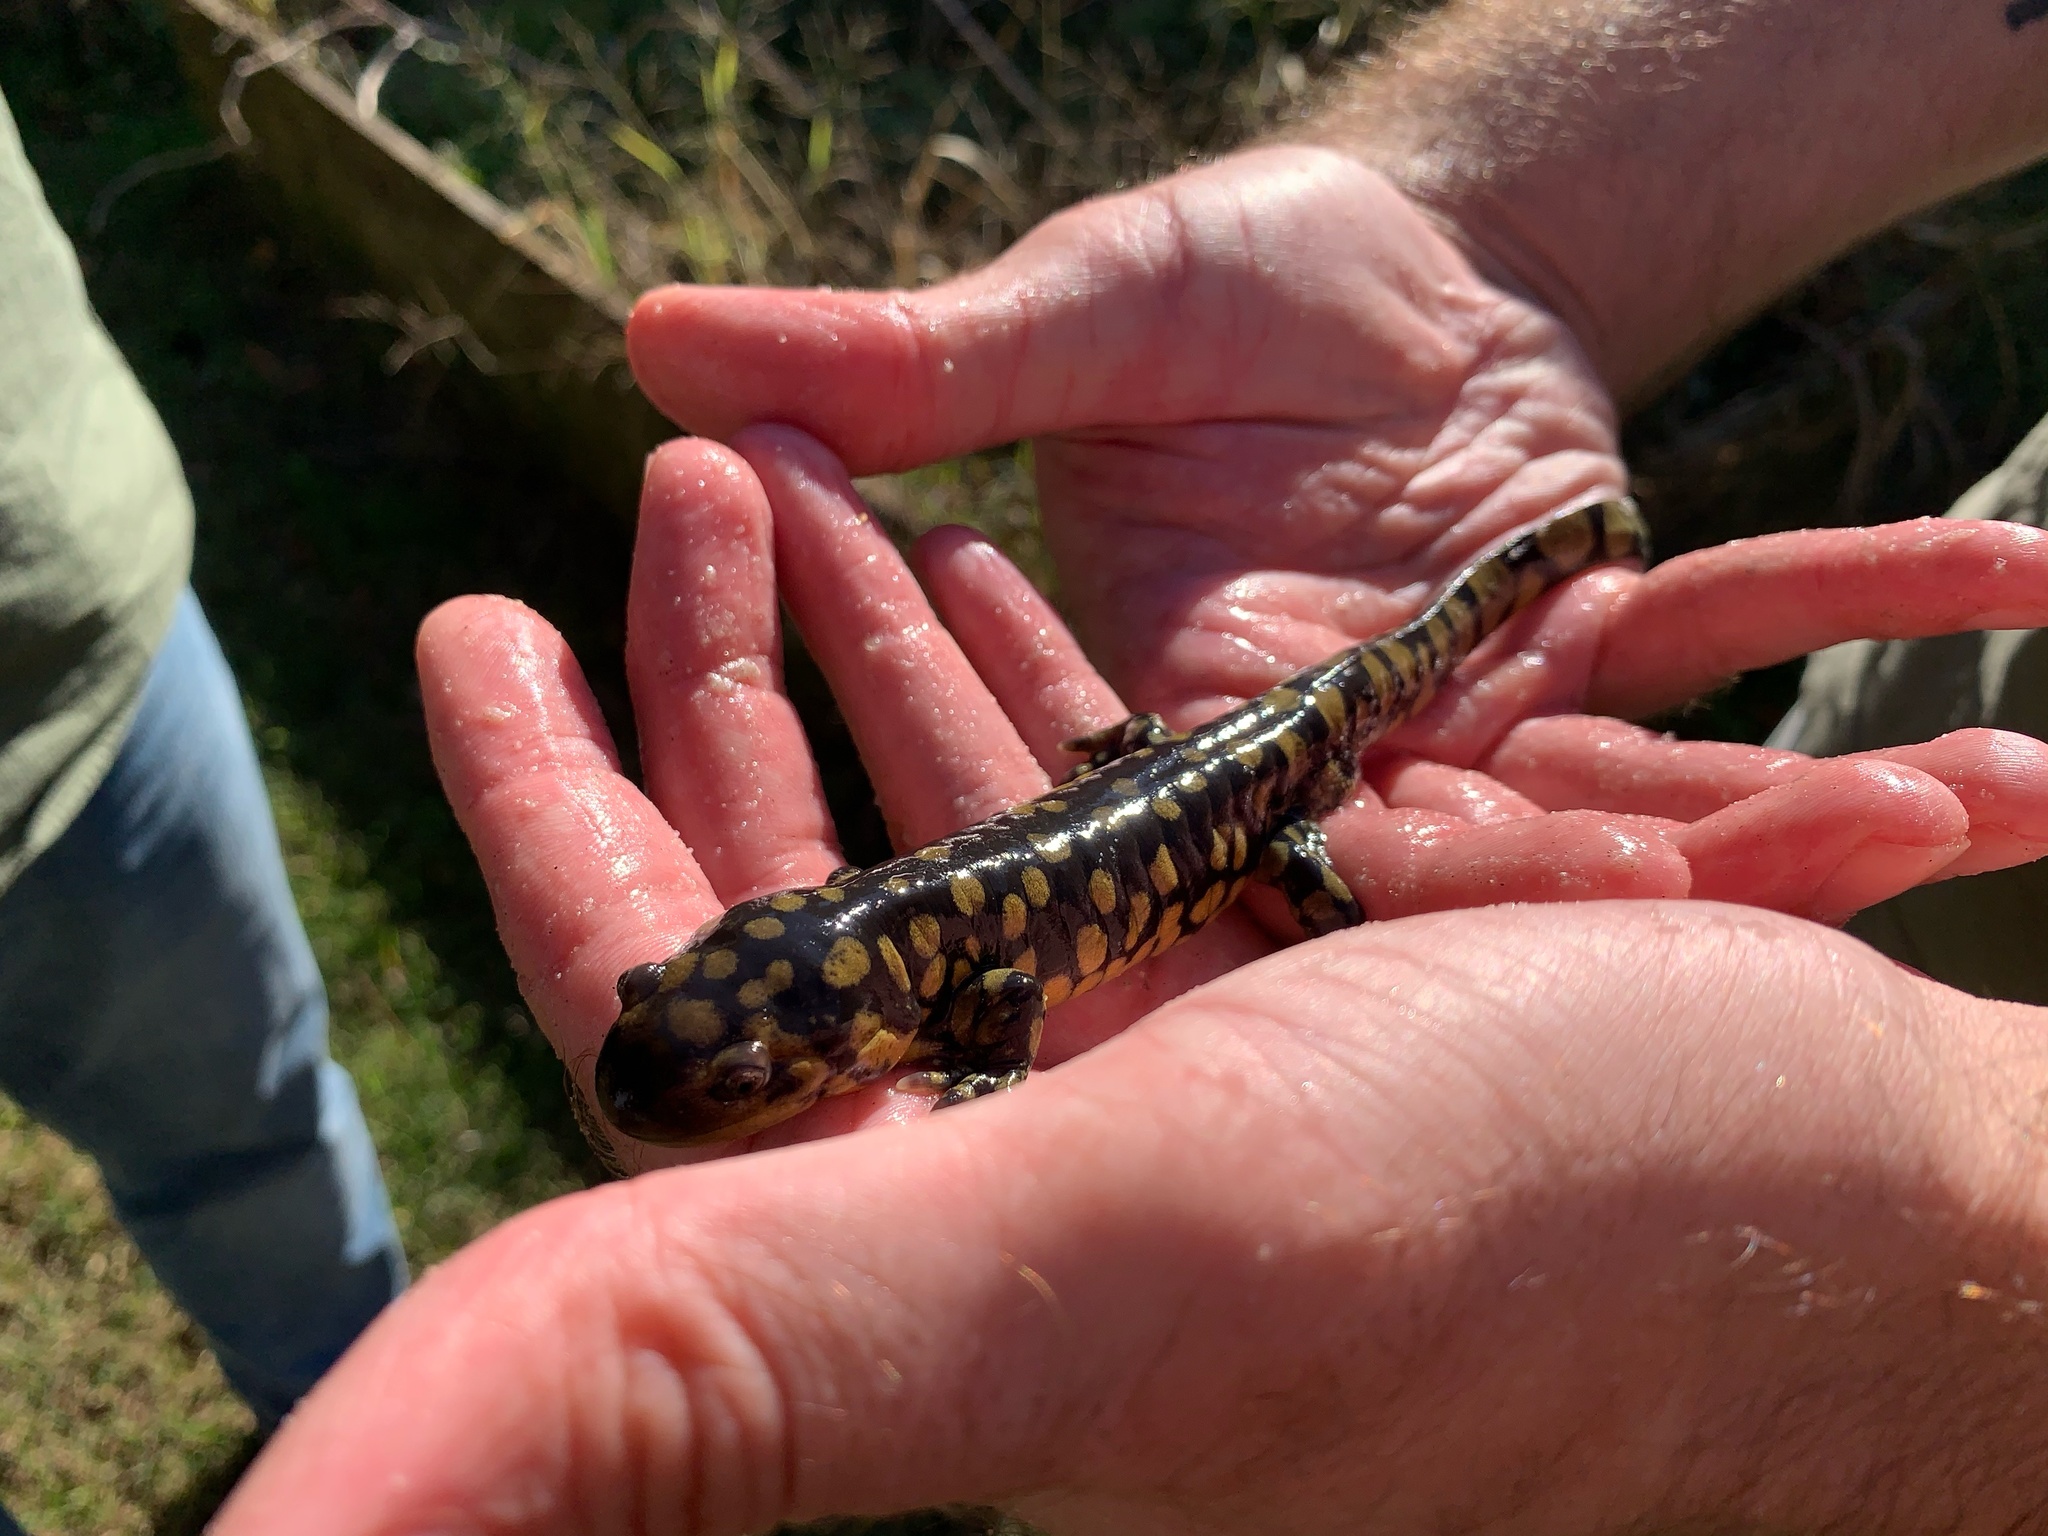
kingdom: Animalia
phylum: Chordata
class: Amphibia
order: Caudata
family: Ambystomatidae
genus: Ambystoma
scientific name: Ambystoma tigrinum
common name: Tiger salamander
